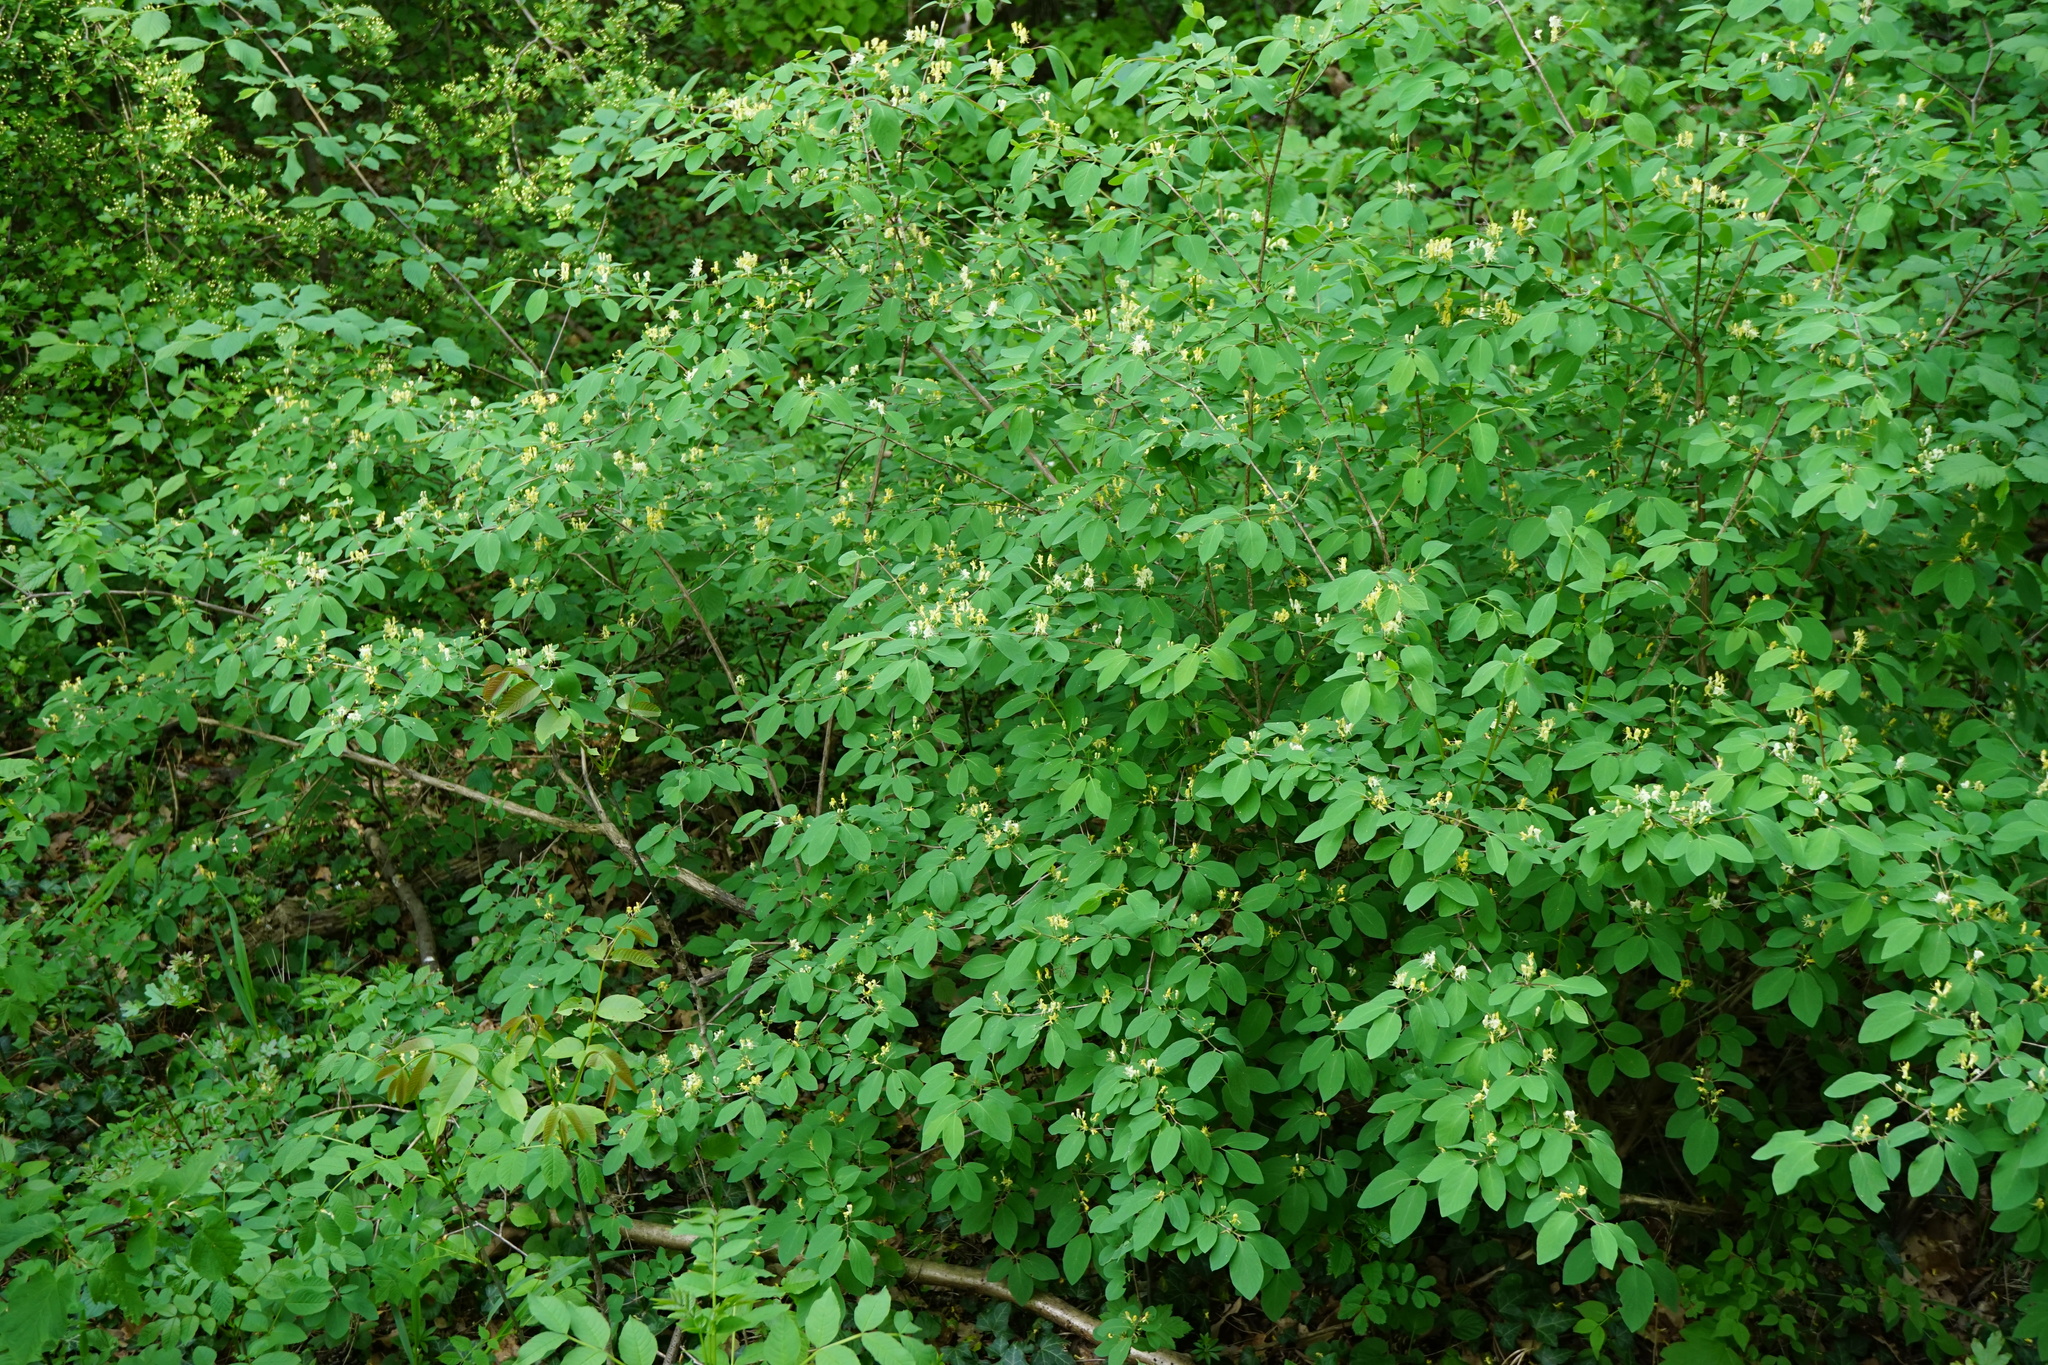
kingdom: Plantae
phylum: Tracheophyta
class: Magnoliopsida
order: Dipsacales
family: Caprifoliaceae
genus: Lonicera
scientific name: Lonicera xylosteum
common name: Fly honeysuckle
